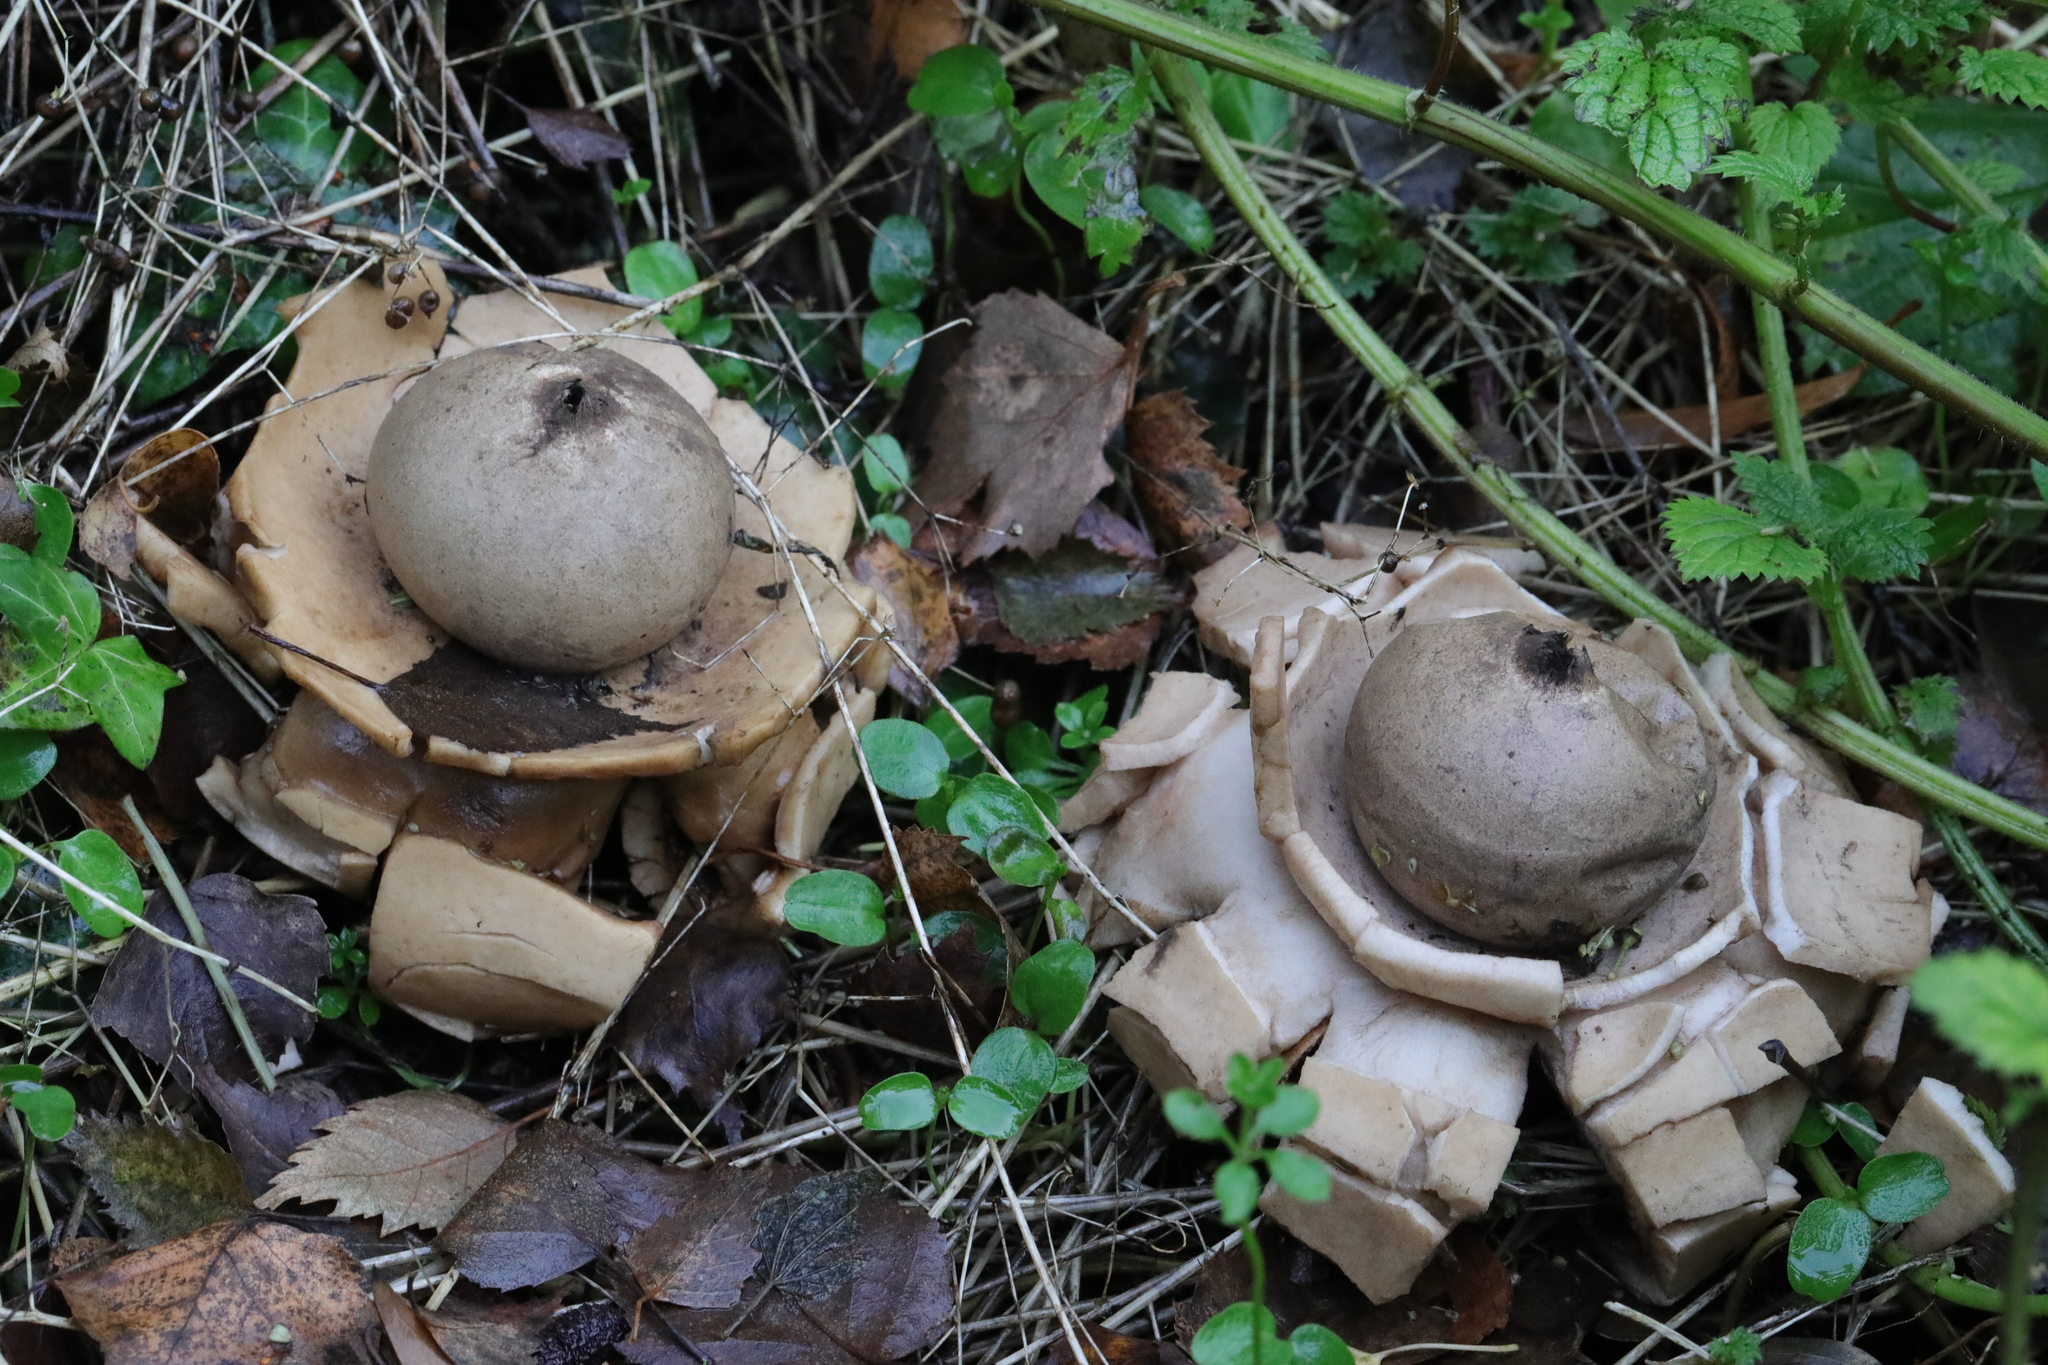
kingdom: Fungi
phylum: Basidiomycota
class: Agaricomycetes
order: Geastrales
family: Geastraceae
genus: Geastrum
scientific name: Geastrum triplex
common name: Collared earthstar
